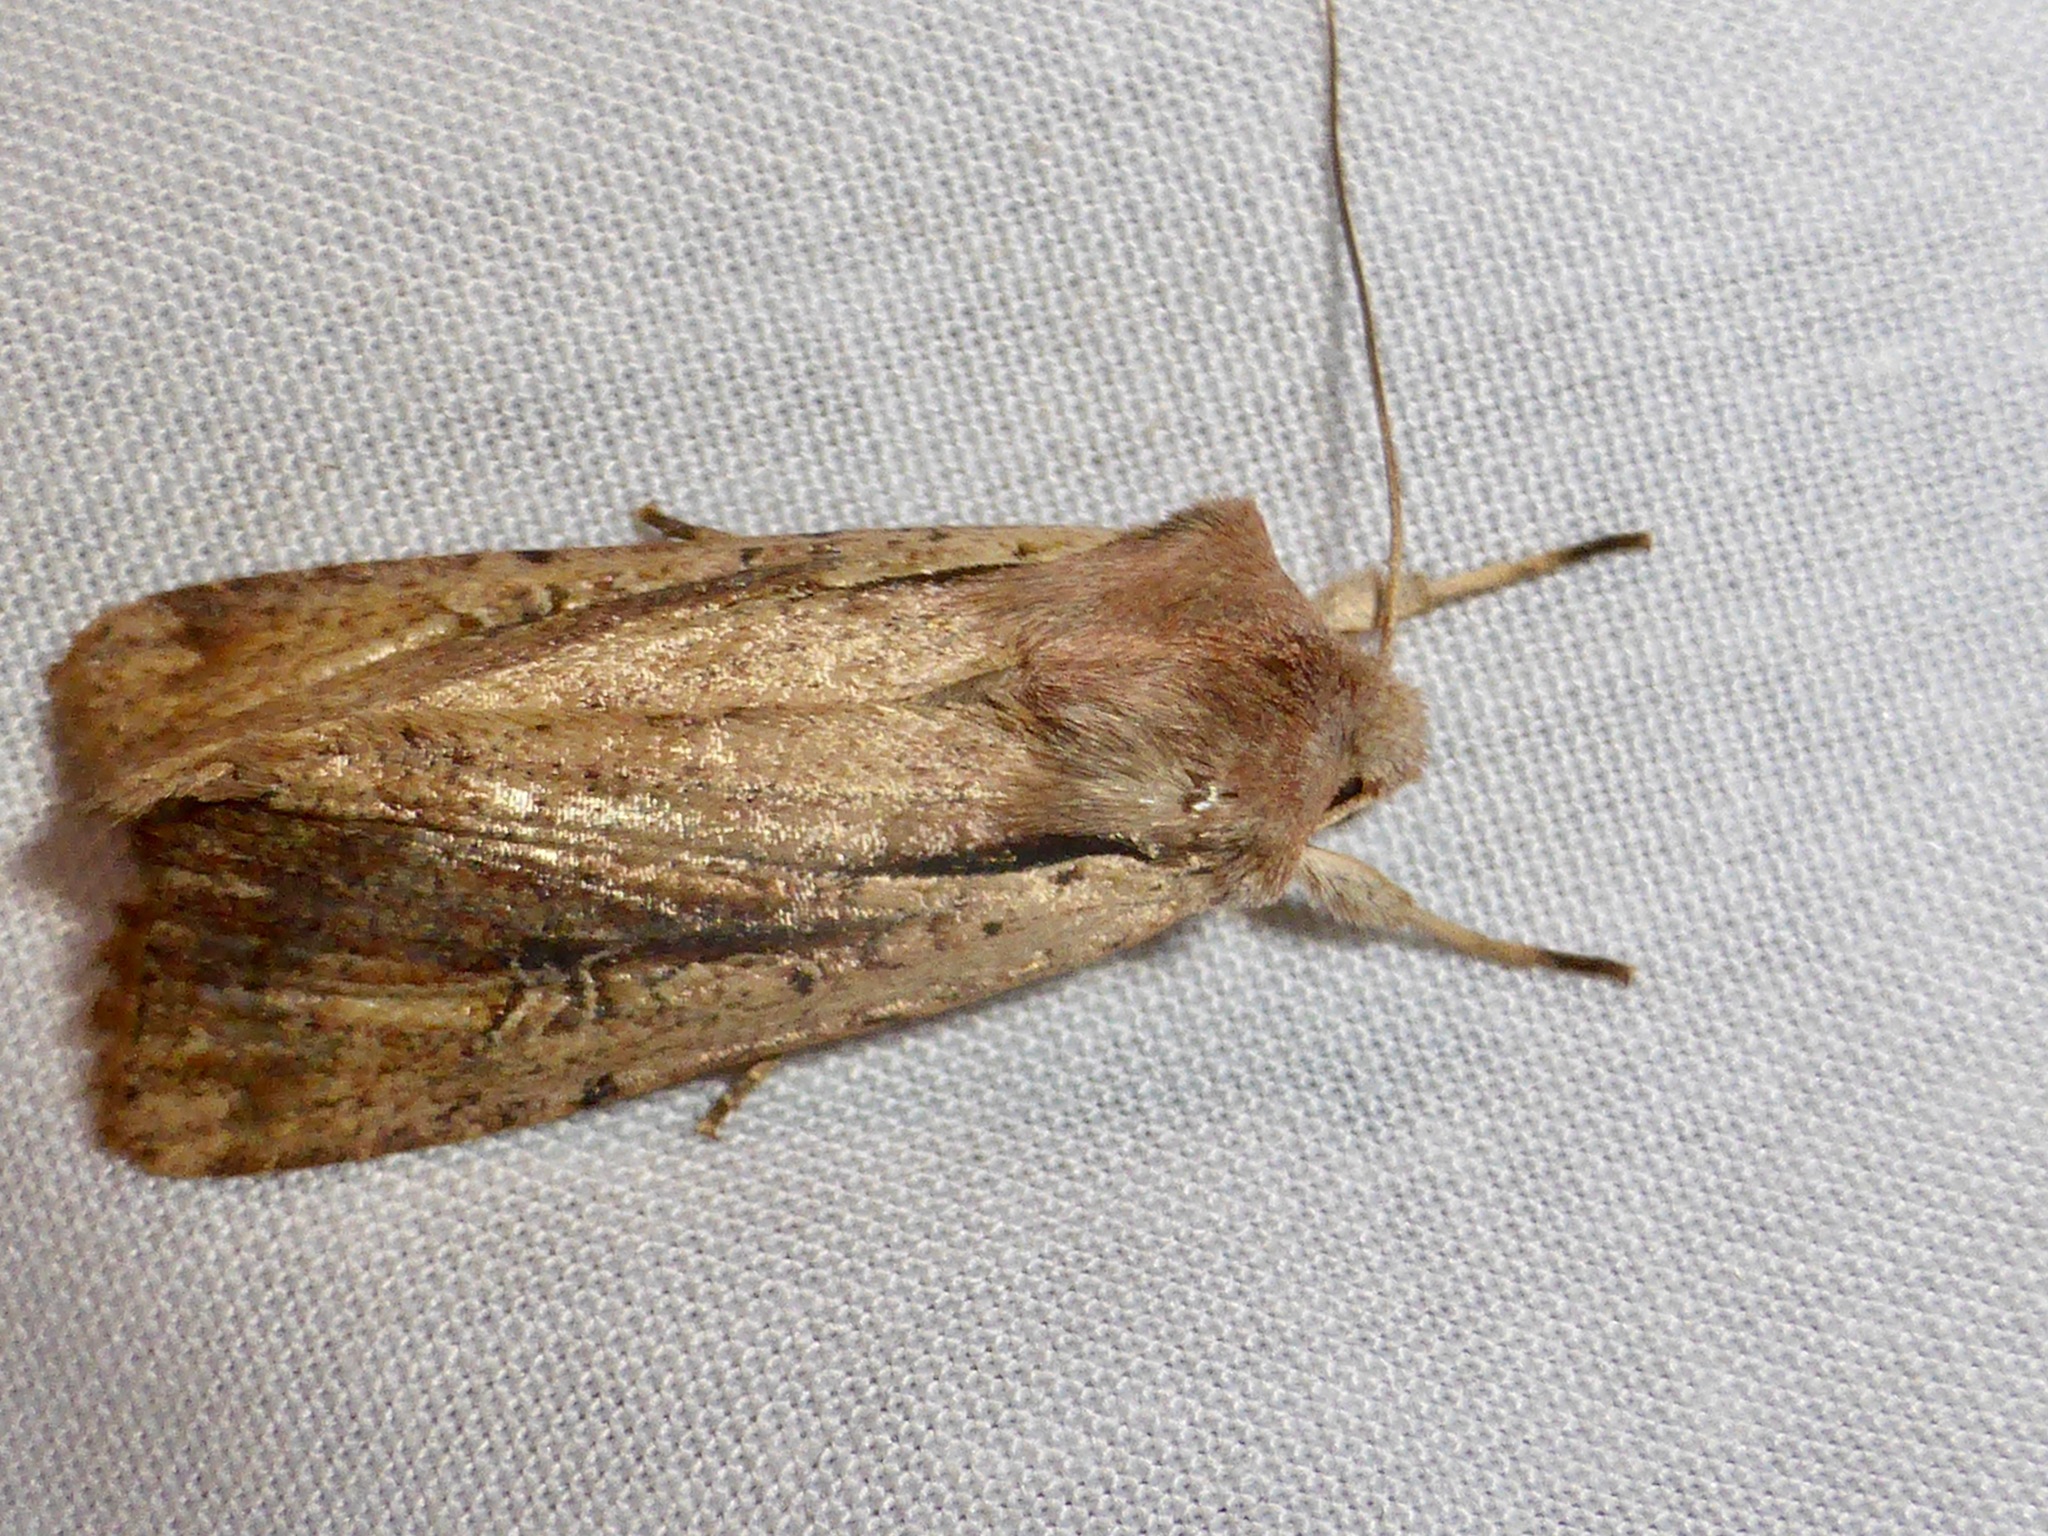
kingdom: Animalia
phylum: Arthropoda
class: Insecta
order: Lepidoptera
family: Noctuidae
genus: Ichneutica
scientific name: Ichneutica atristriga
